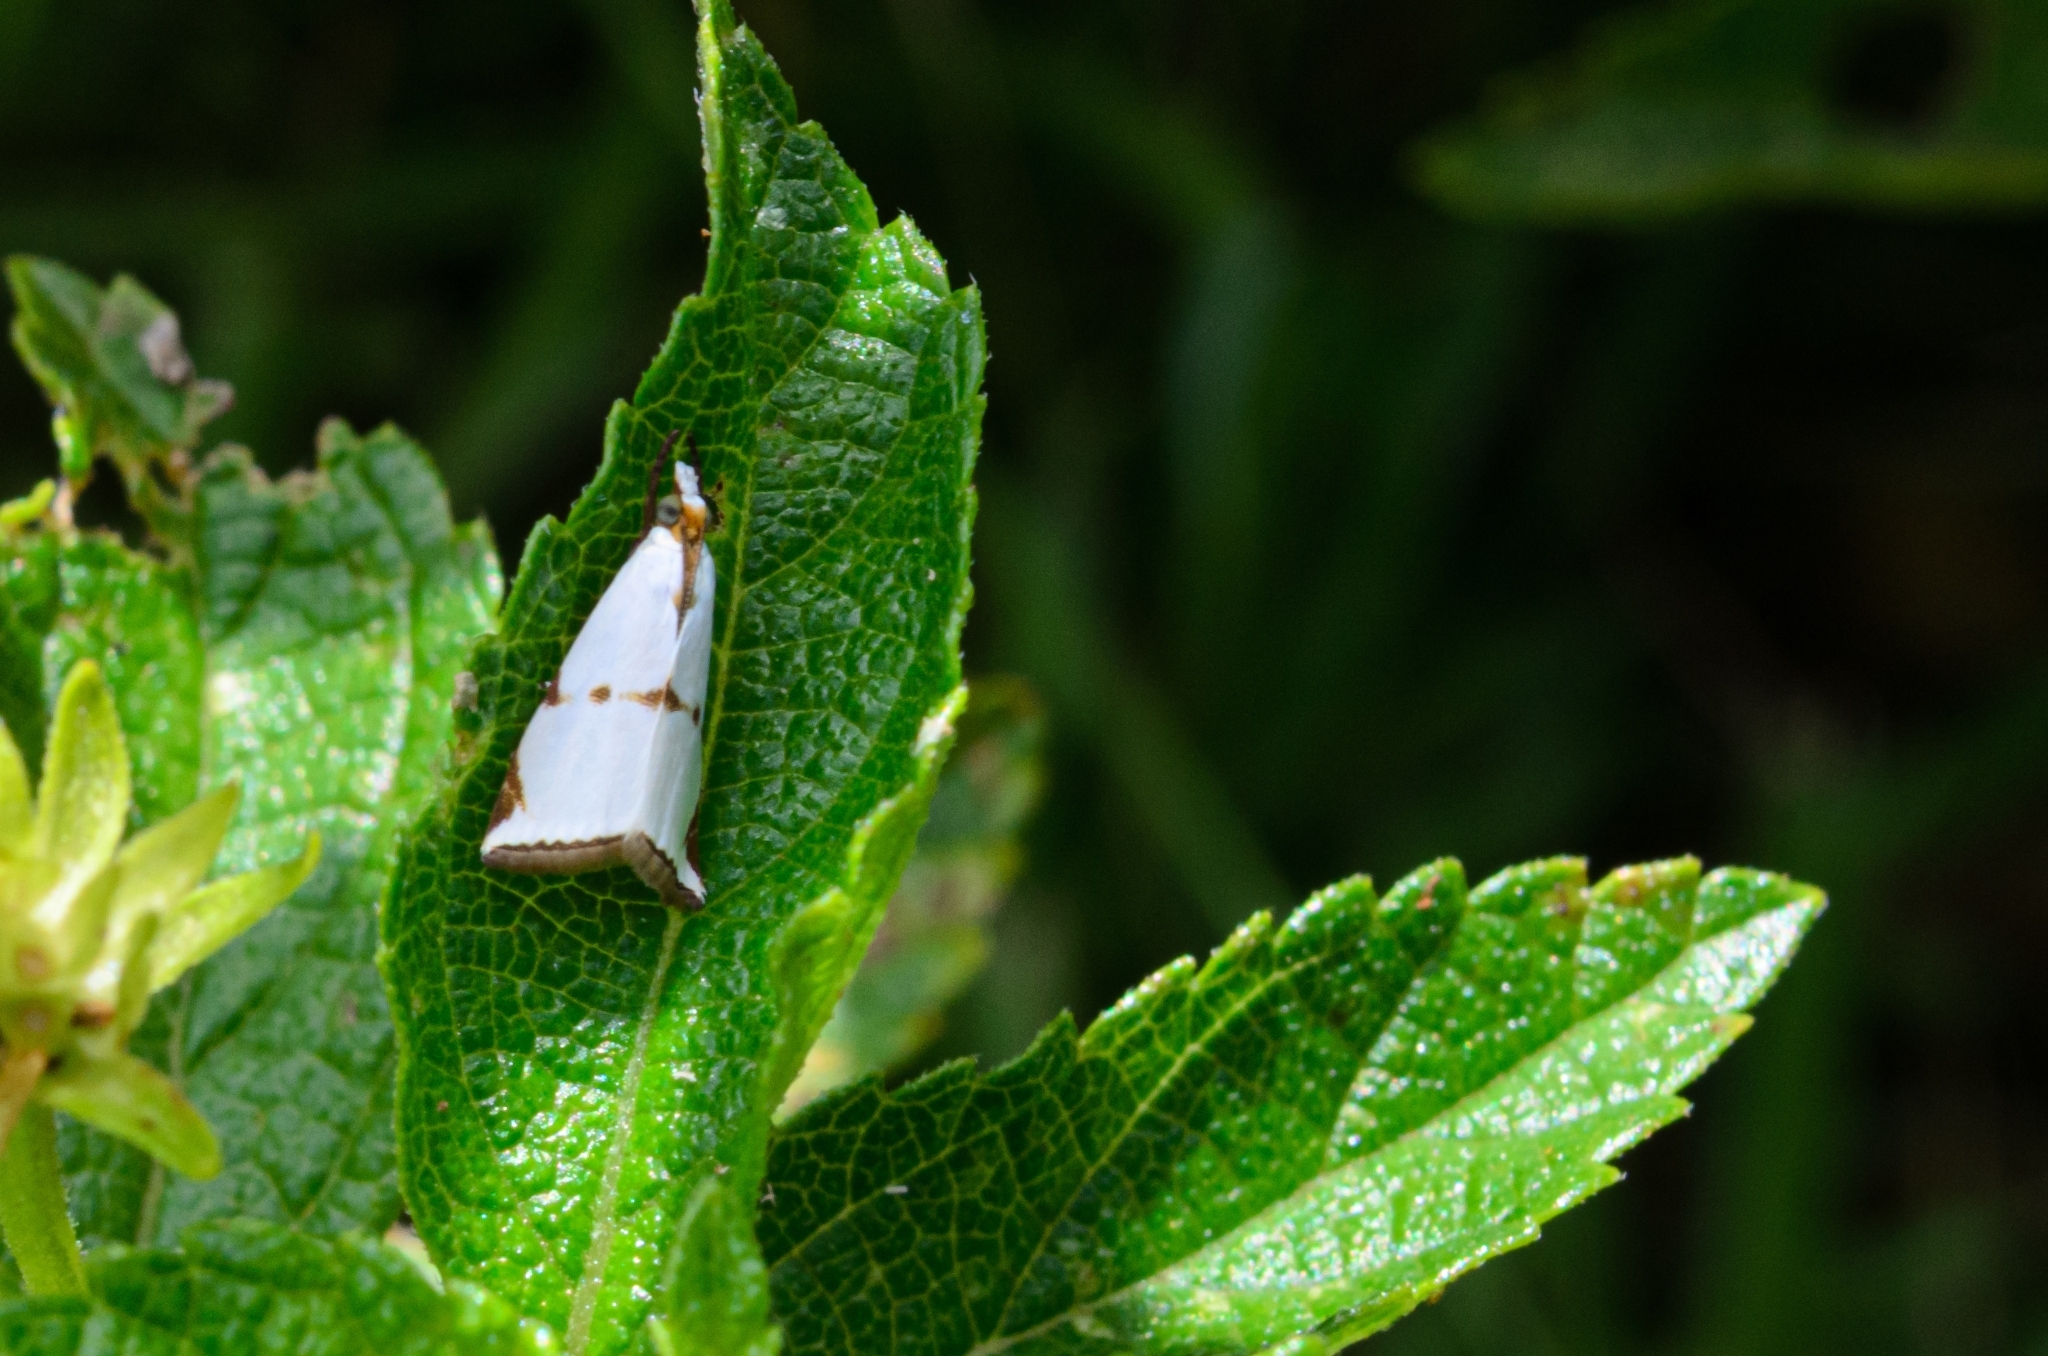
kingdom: Animalia
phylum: Arthropoda
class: Insecta
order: Lepidoptera
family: Crambidae
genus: Argyria
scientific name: Argyria lacteella
